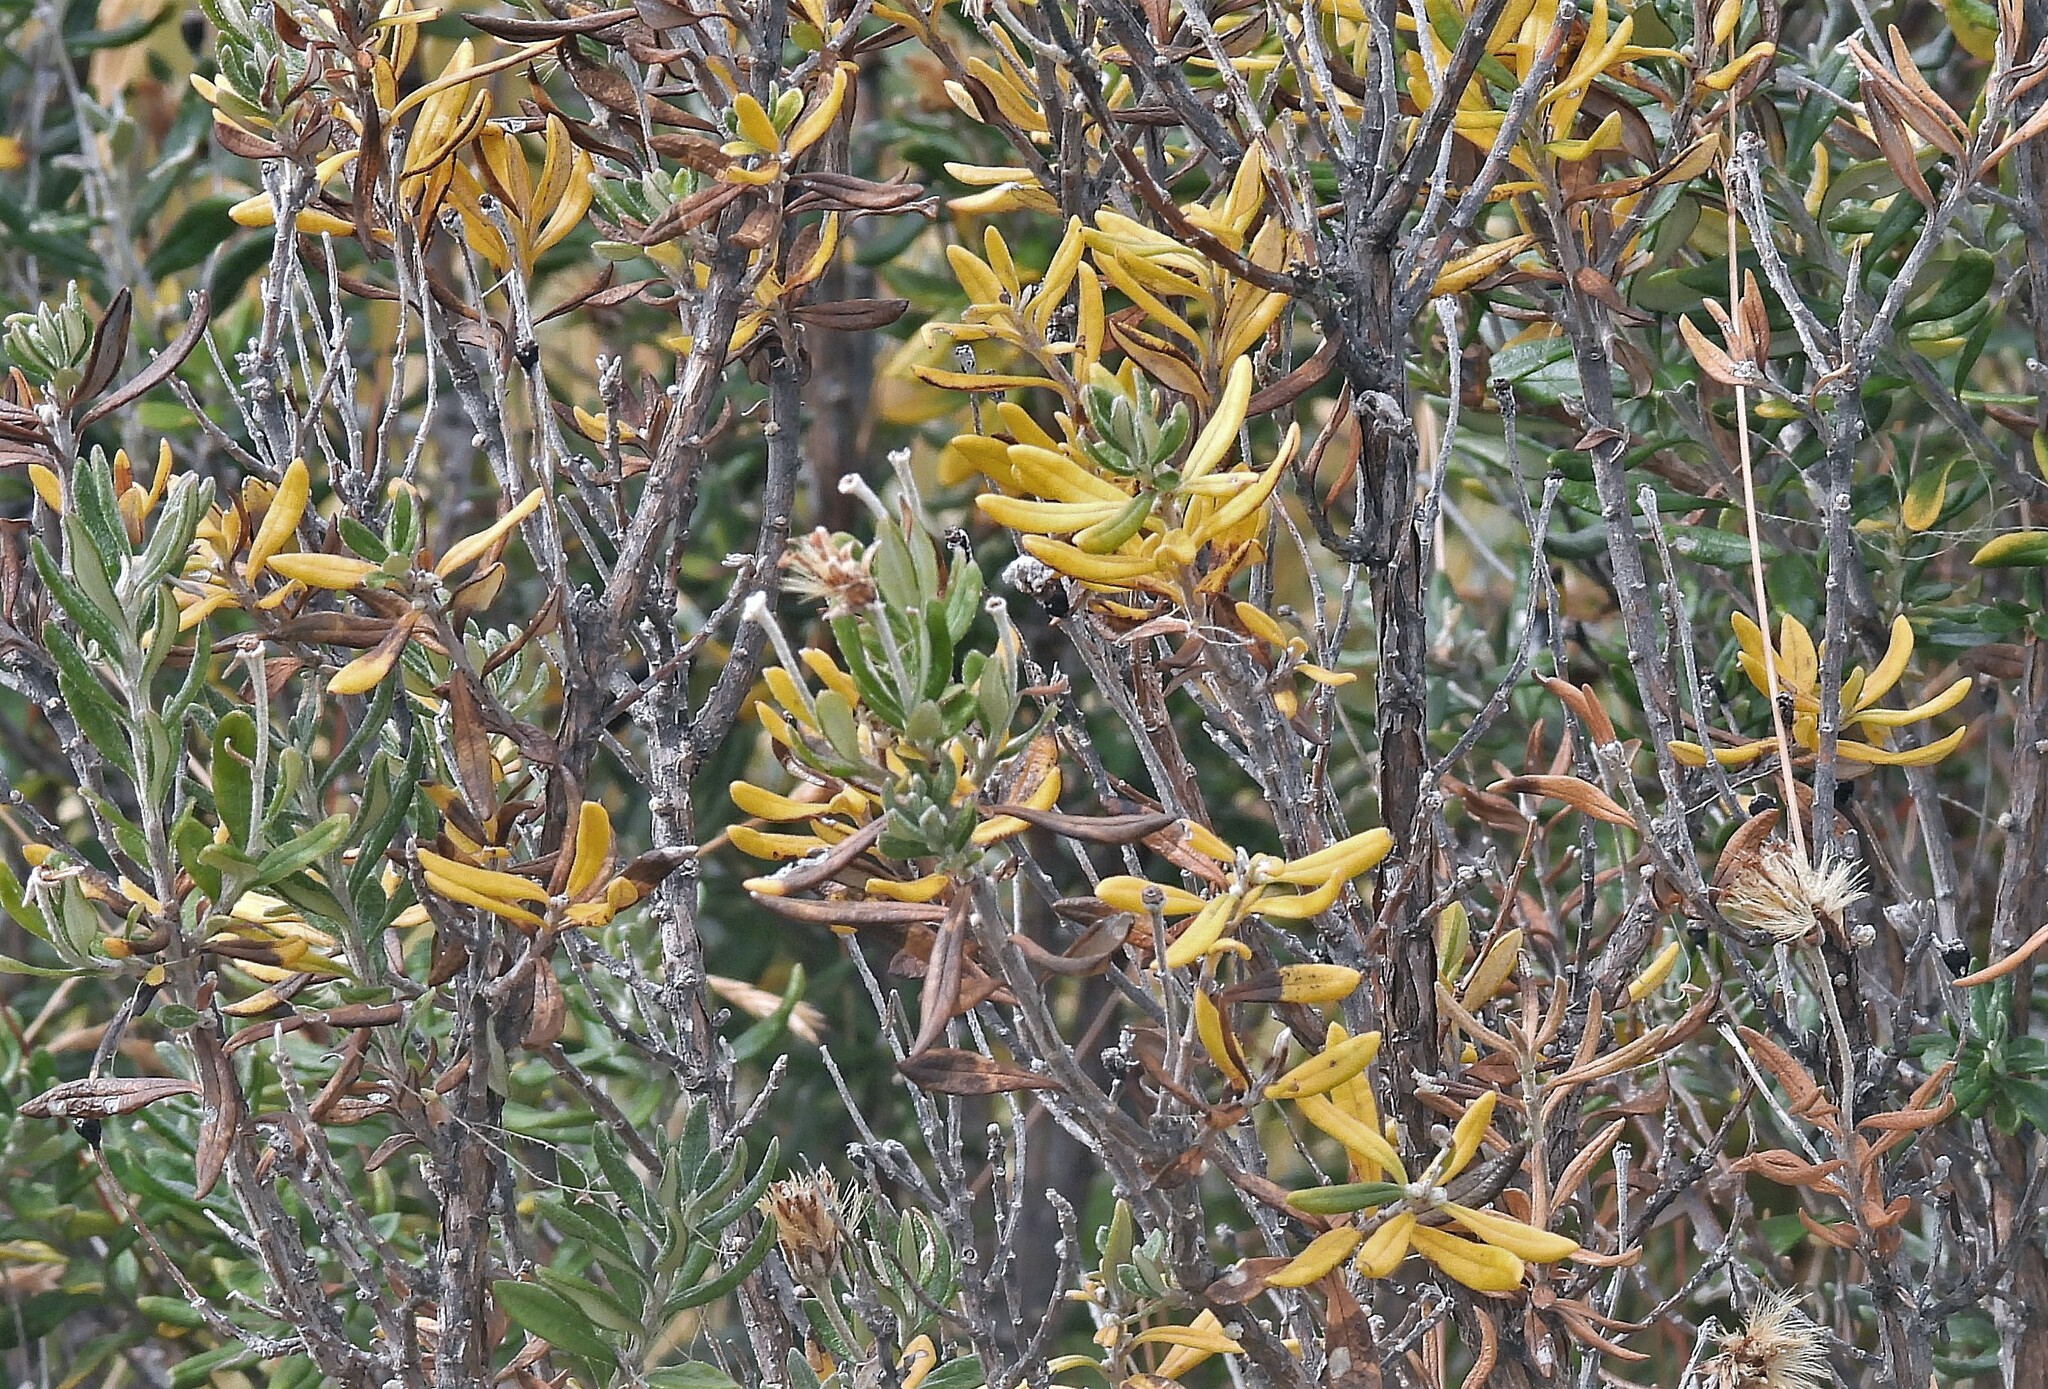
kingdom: Plantae
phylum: Tracheophyta
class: Magnoliopsida
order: Asterales
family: Asteraceae
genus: Chiliotrichum
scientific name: Chiliotrichum diffusum
